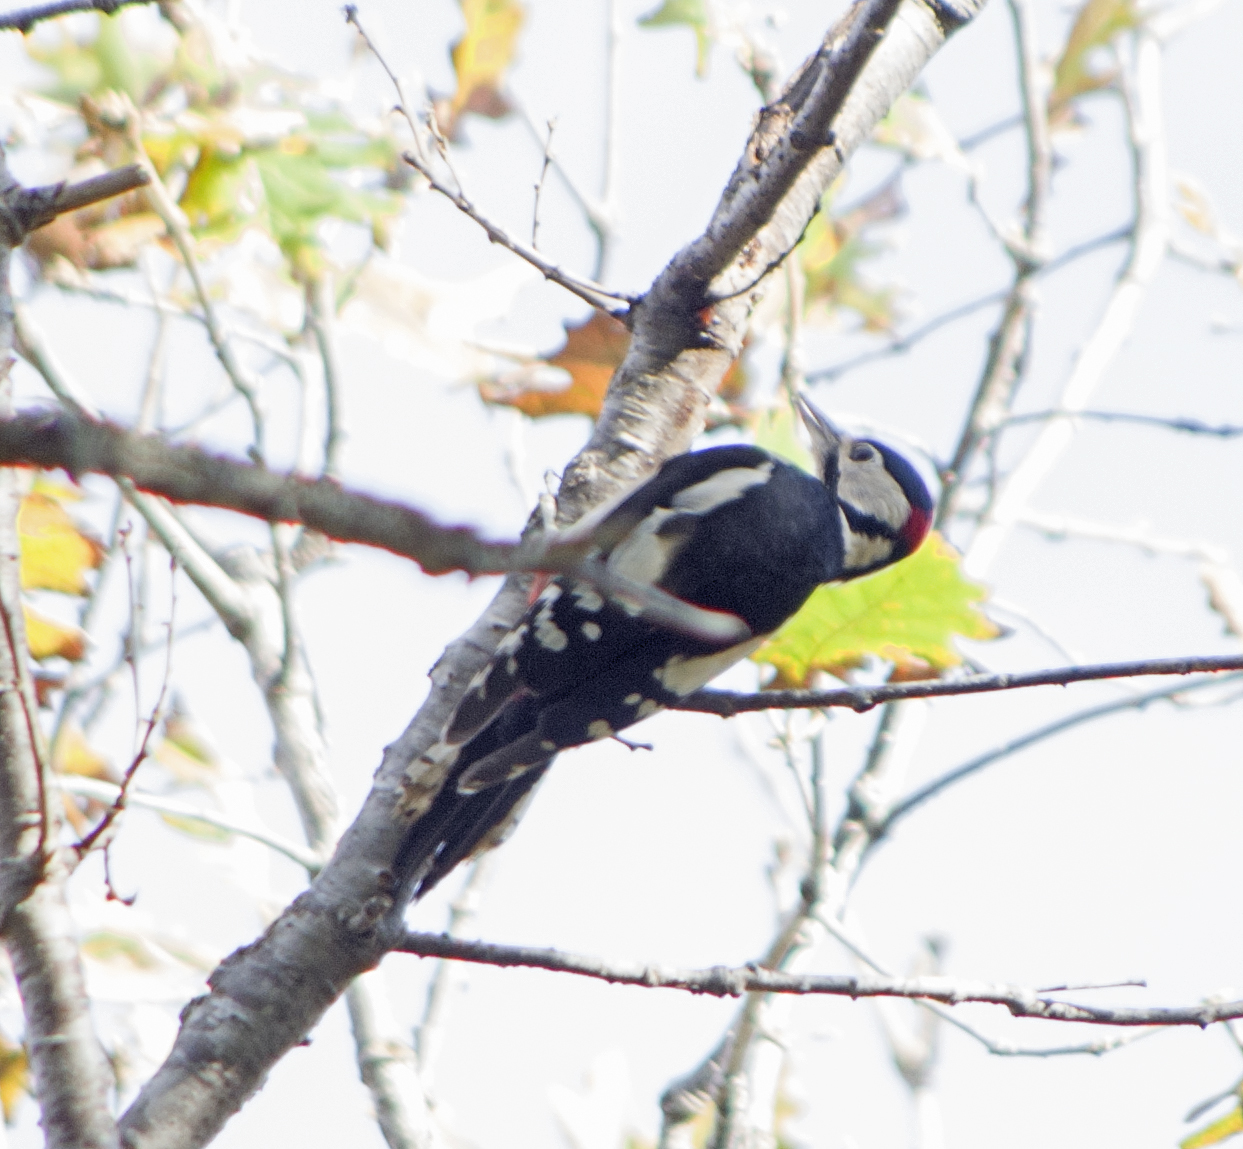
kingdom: Animalia
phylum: Chordata
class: Aves
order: Piciformes
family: Picidae
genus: Dendrocopos
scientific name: Dendrocopos major
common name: Great spotted woodpecker
